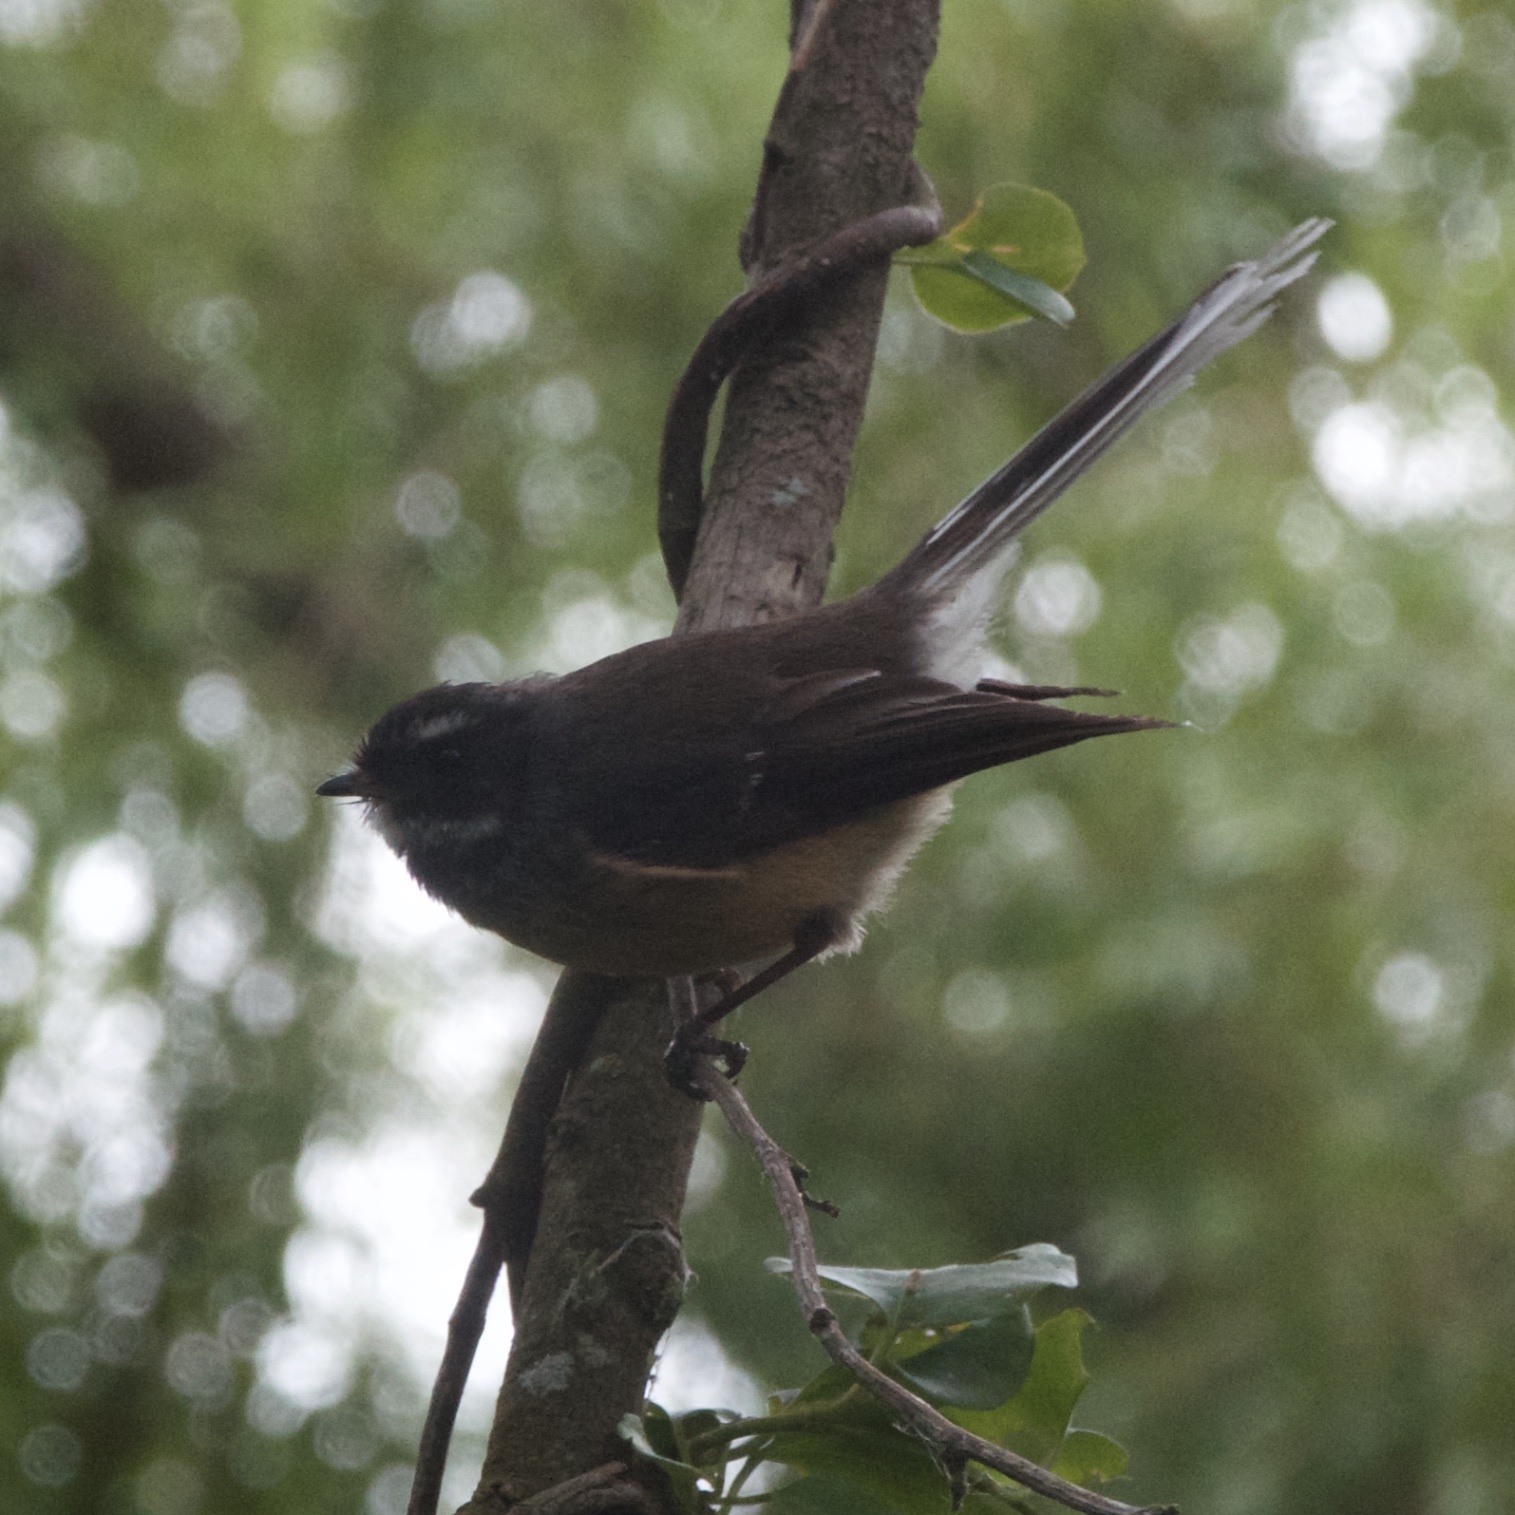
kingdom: Animalia
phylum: Chordata
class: Aves
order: Passeriformes
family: Rhipiduridae
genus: Rhipidura
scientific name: Rhipidura fuliginosa
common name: New zealand fantail
